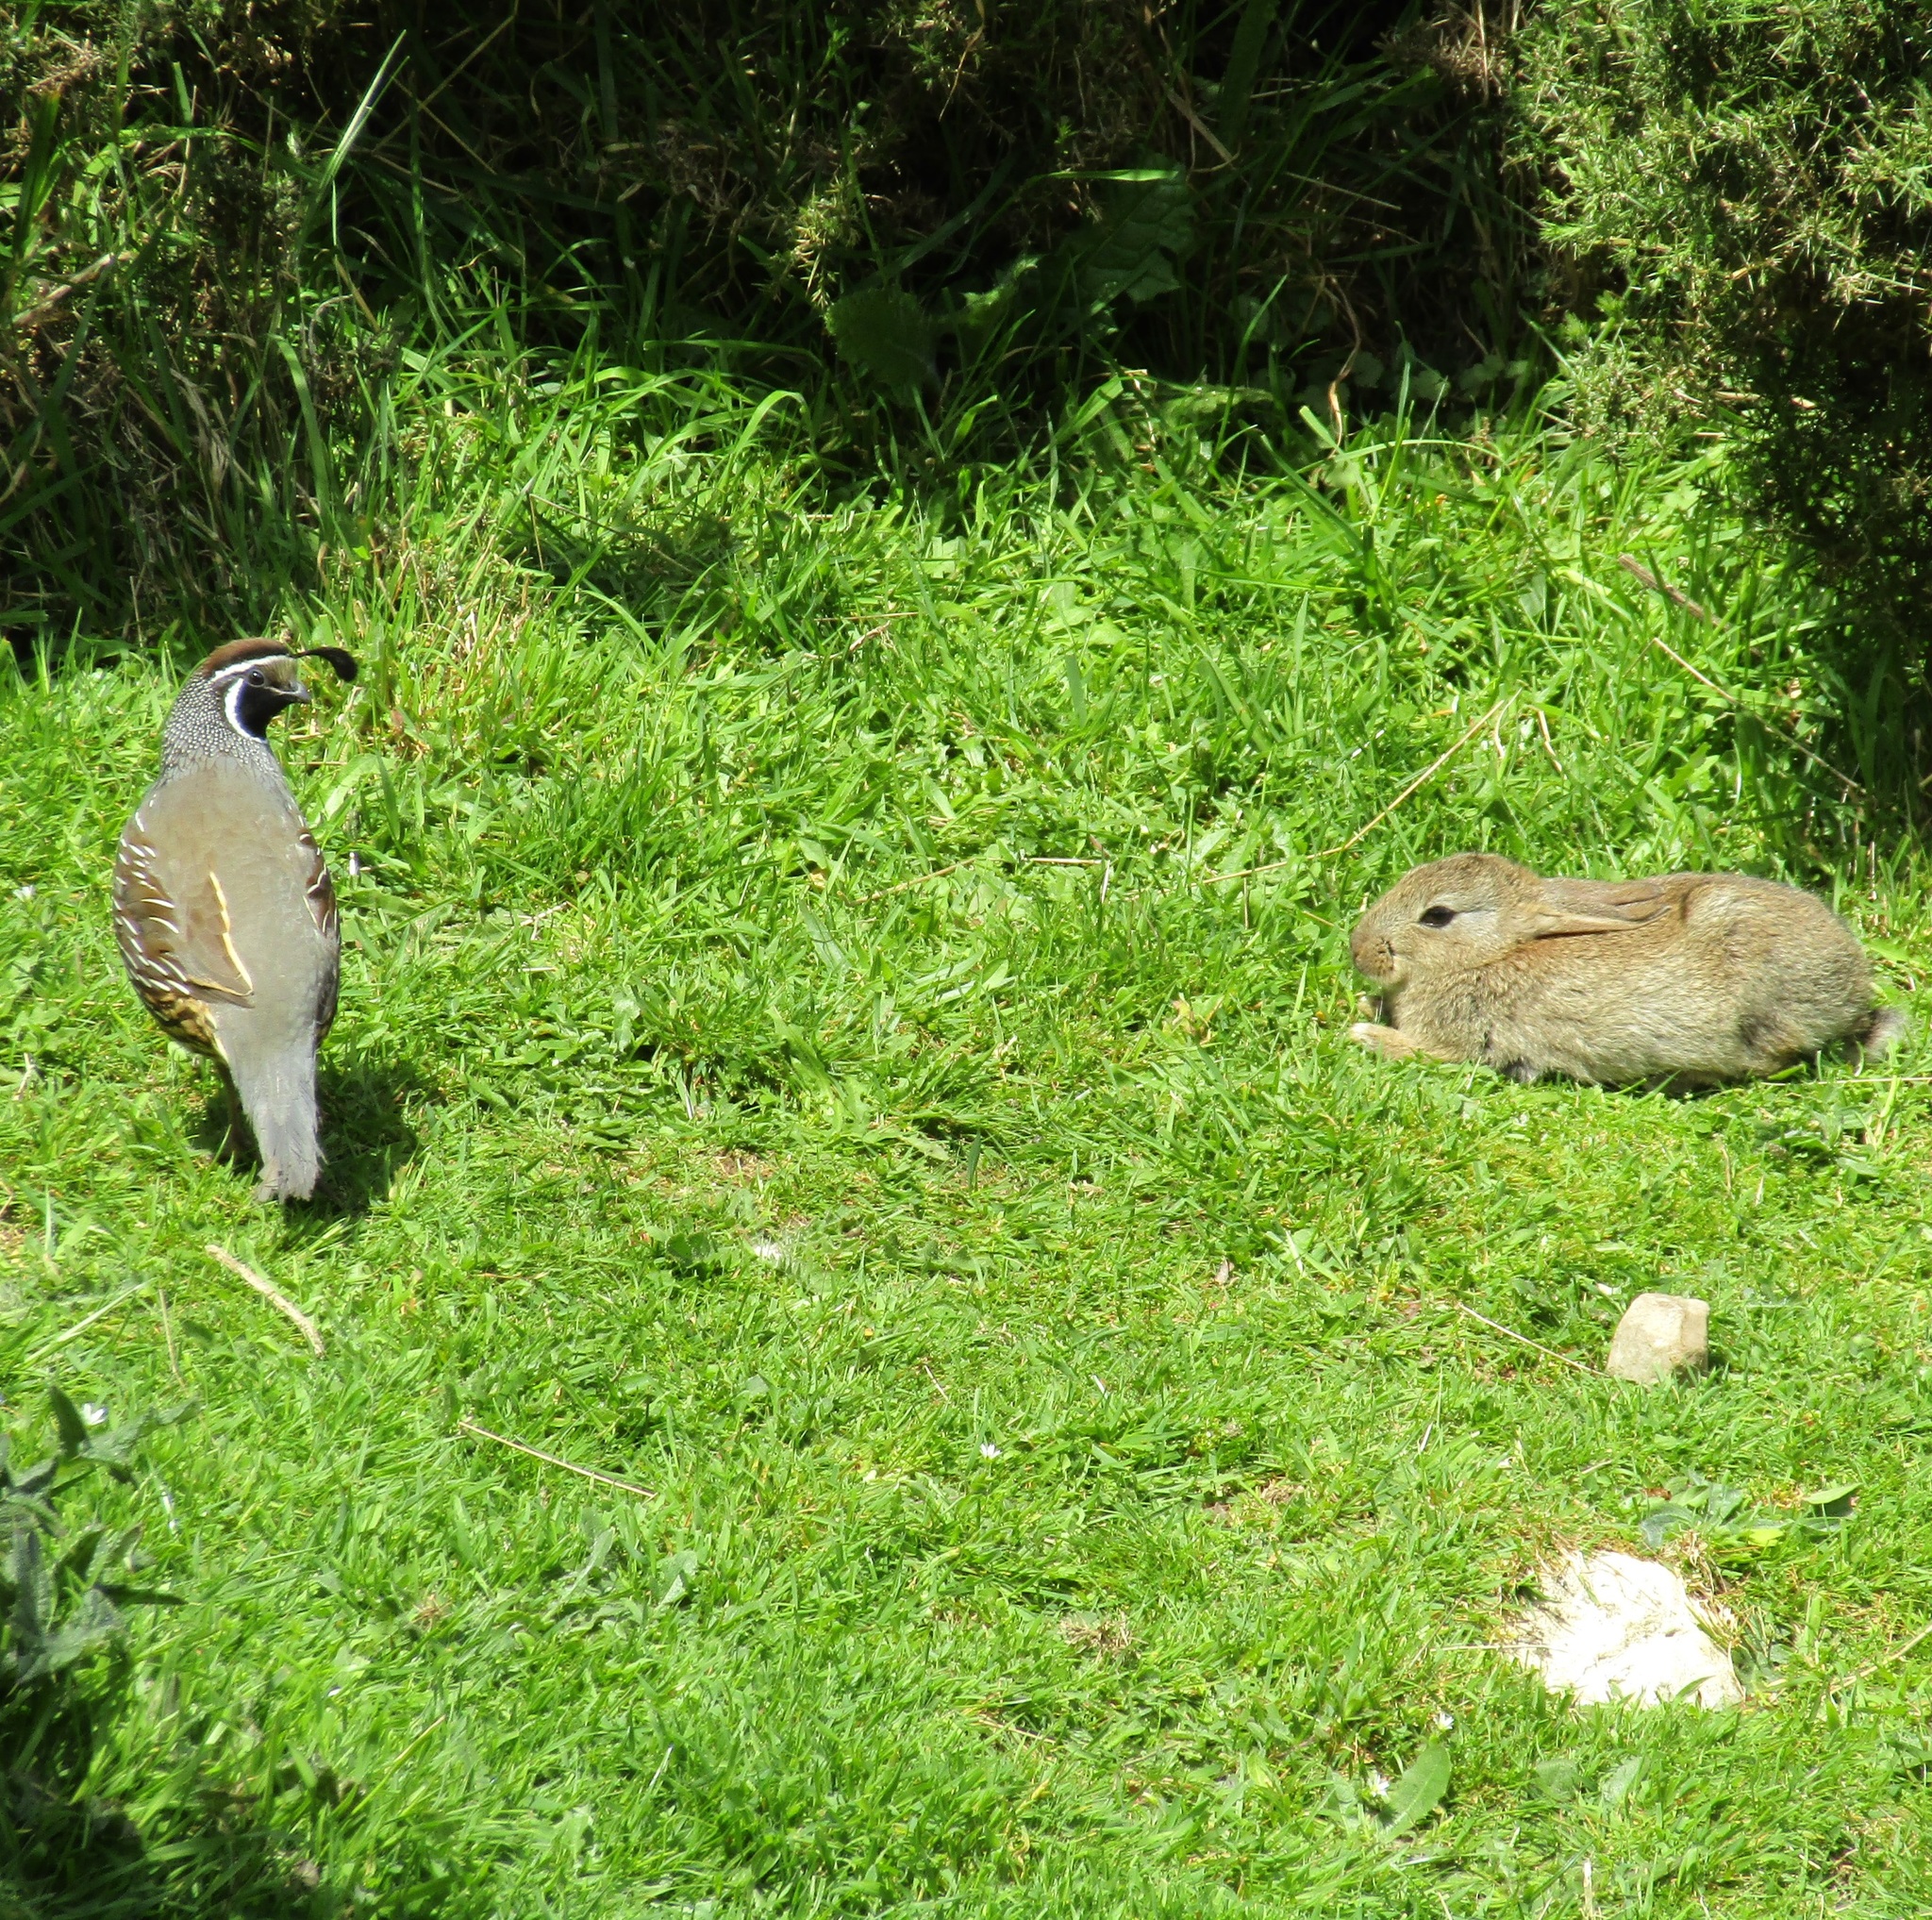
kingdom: Animalia
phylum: Chordata
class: Aves
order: Galliformes
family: Odontophoridae
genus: Callipepla
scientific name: Callipepla californica
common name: California quail
